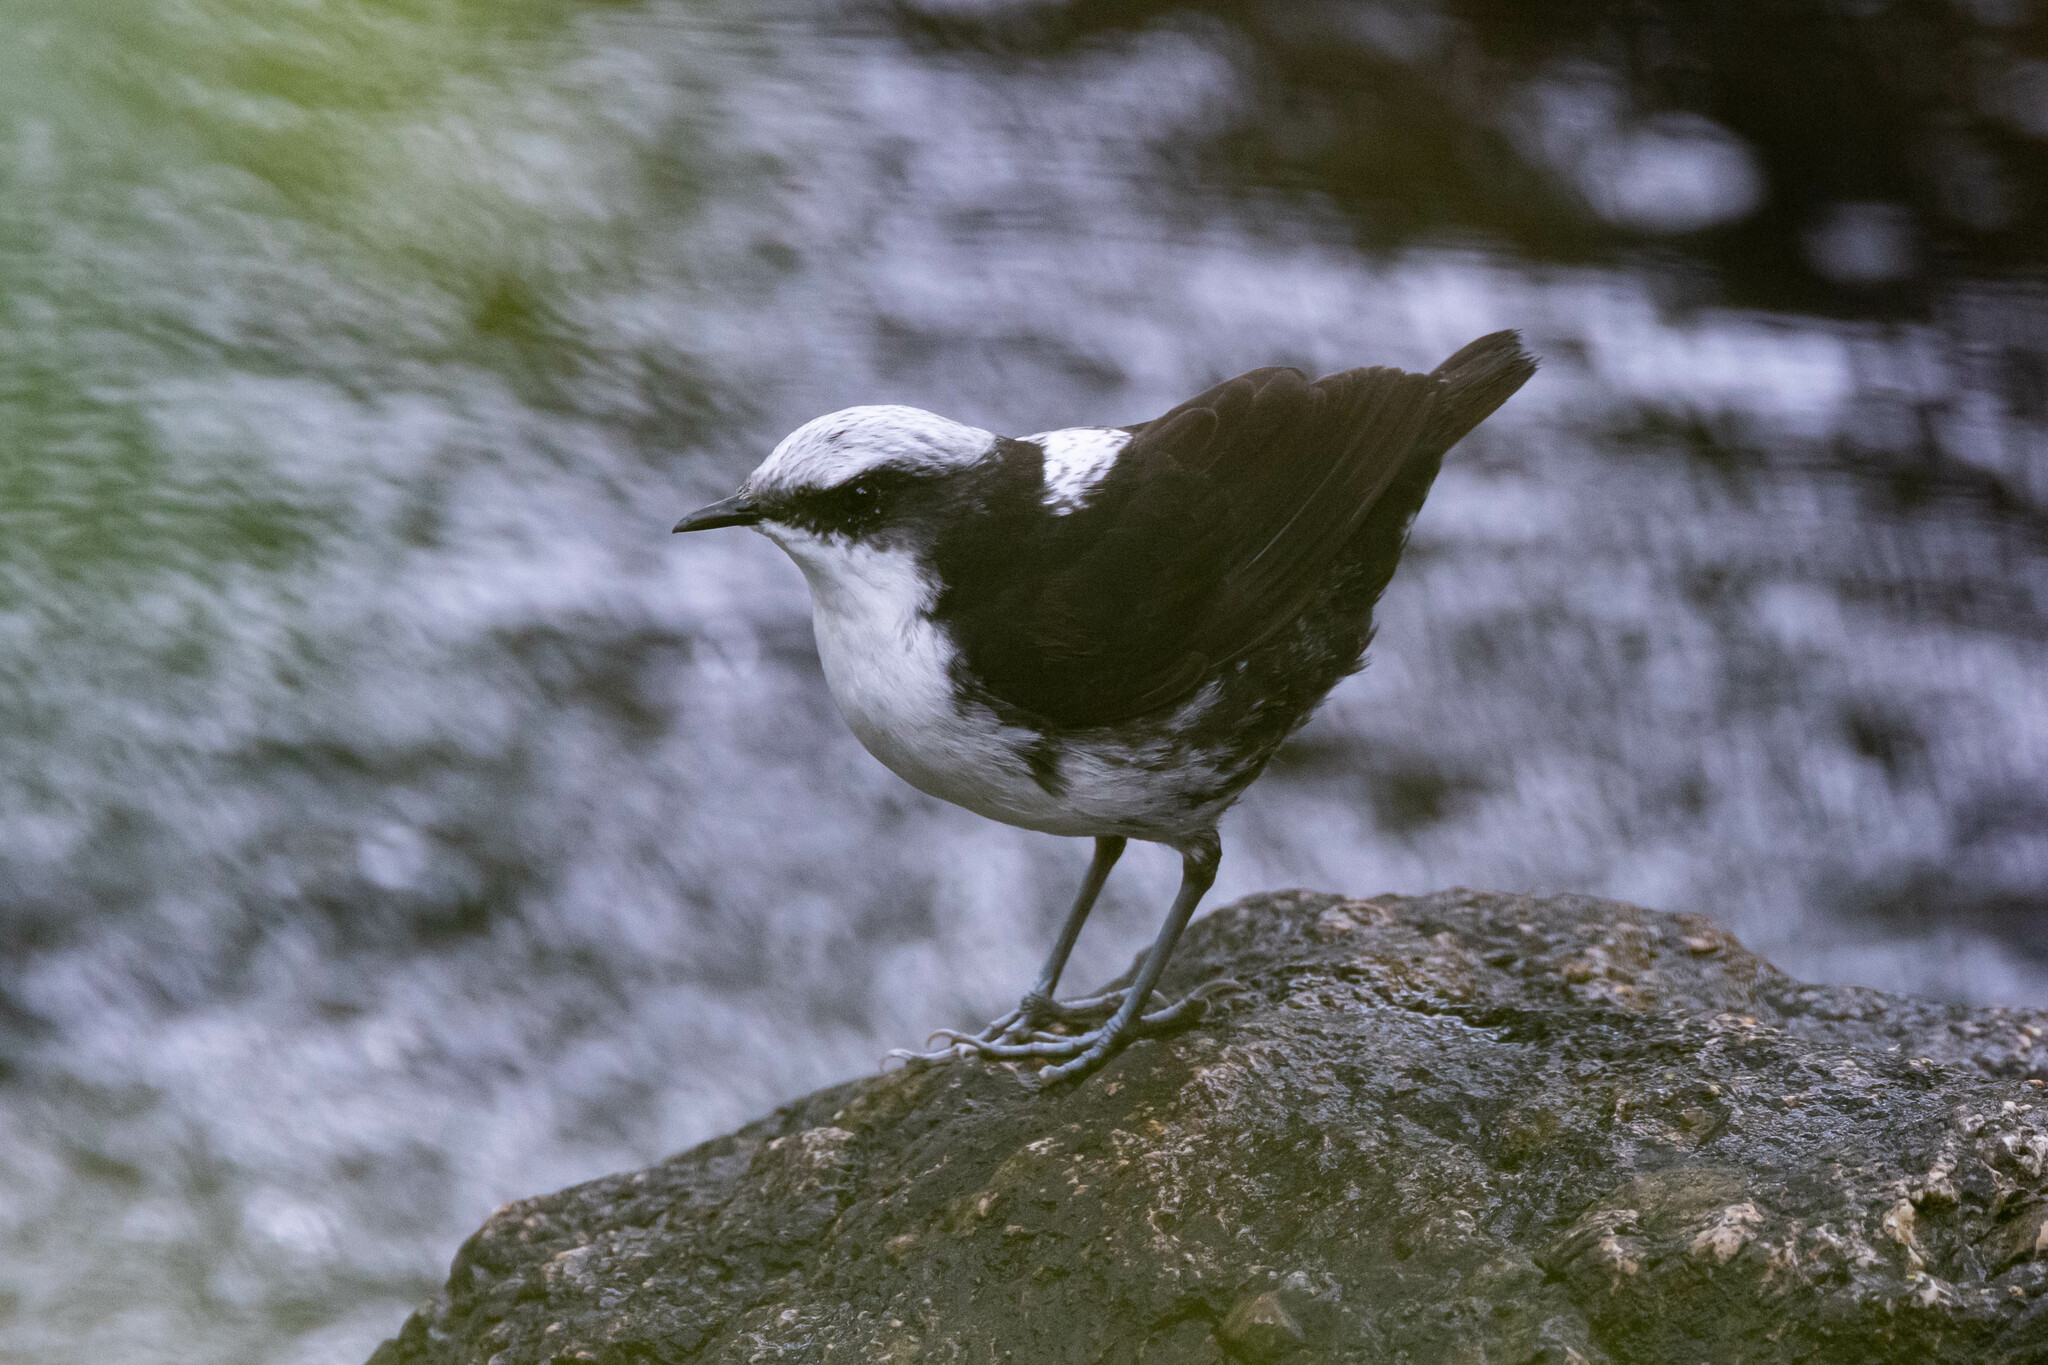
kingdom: Animalia
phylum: Chordata
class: Aves
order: Passeriformes
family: Cinclidae
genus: Cinclus
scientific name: Cinclus leucocephalus
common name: White-capped dipper
